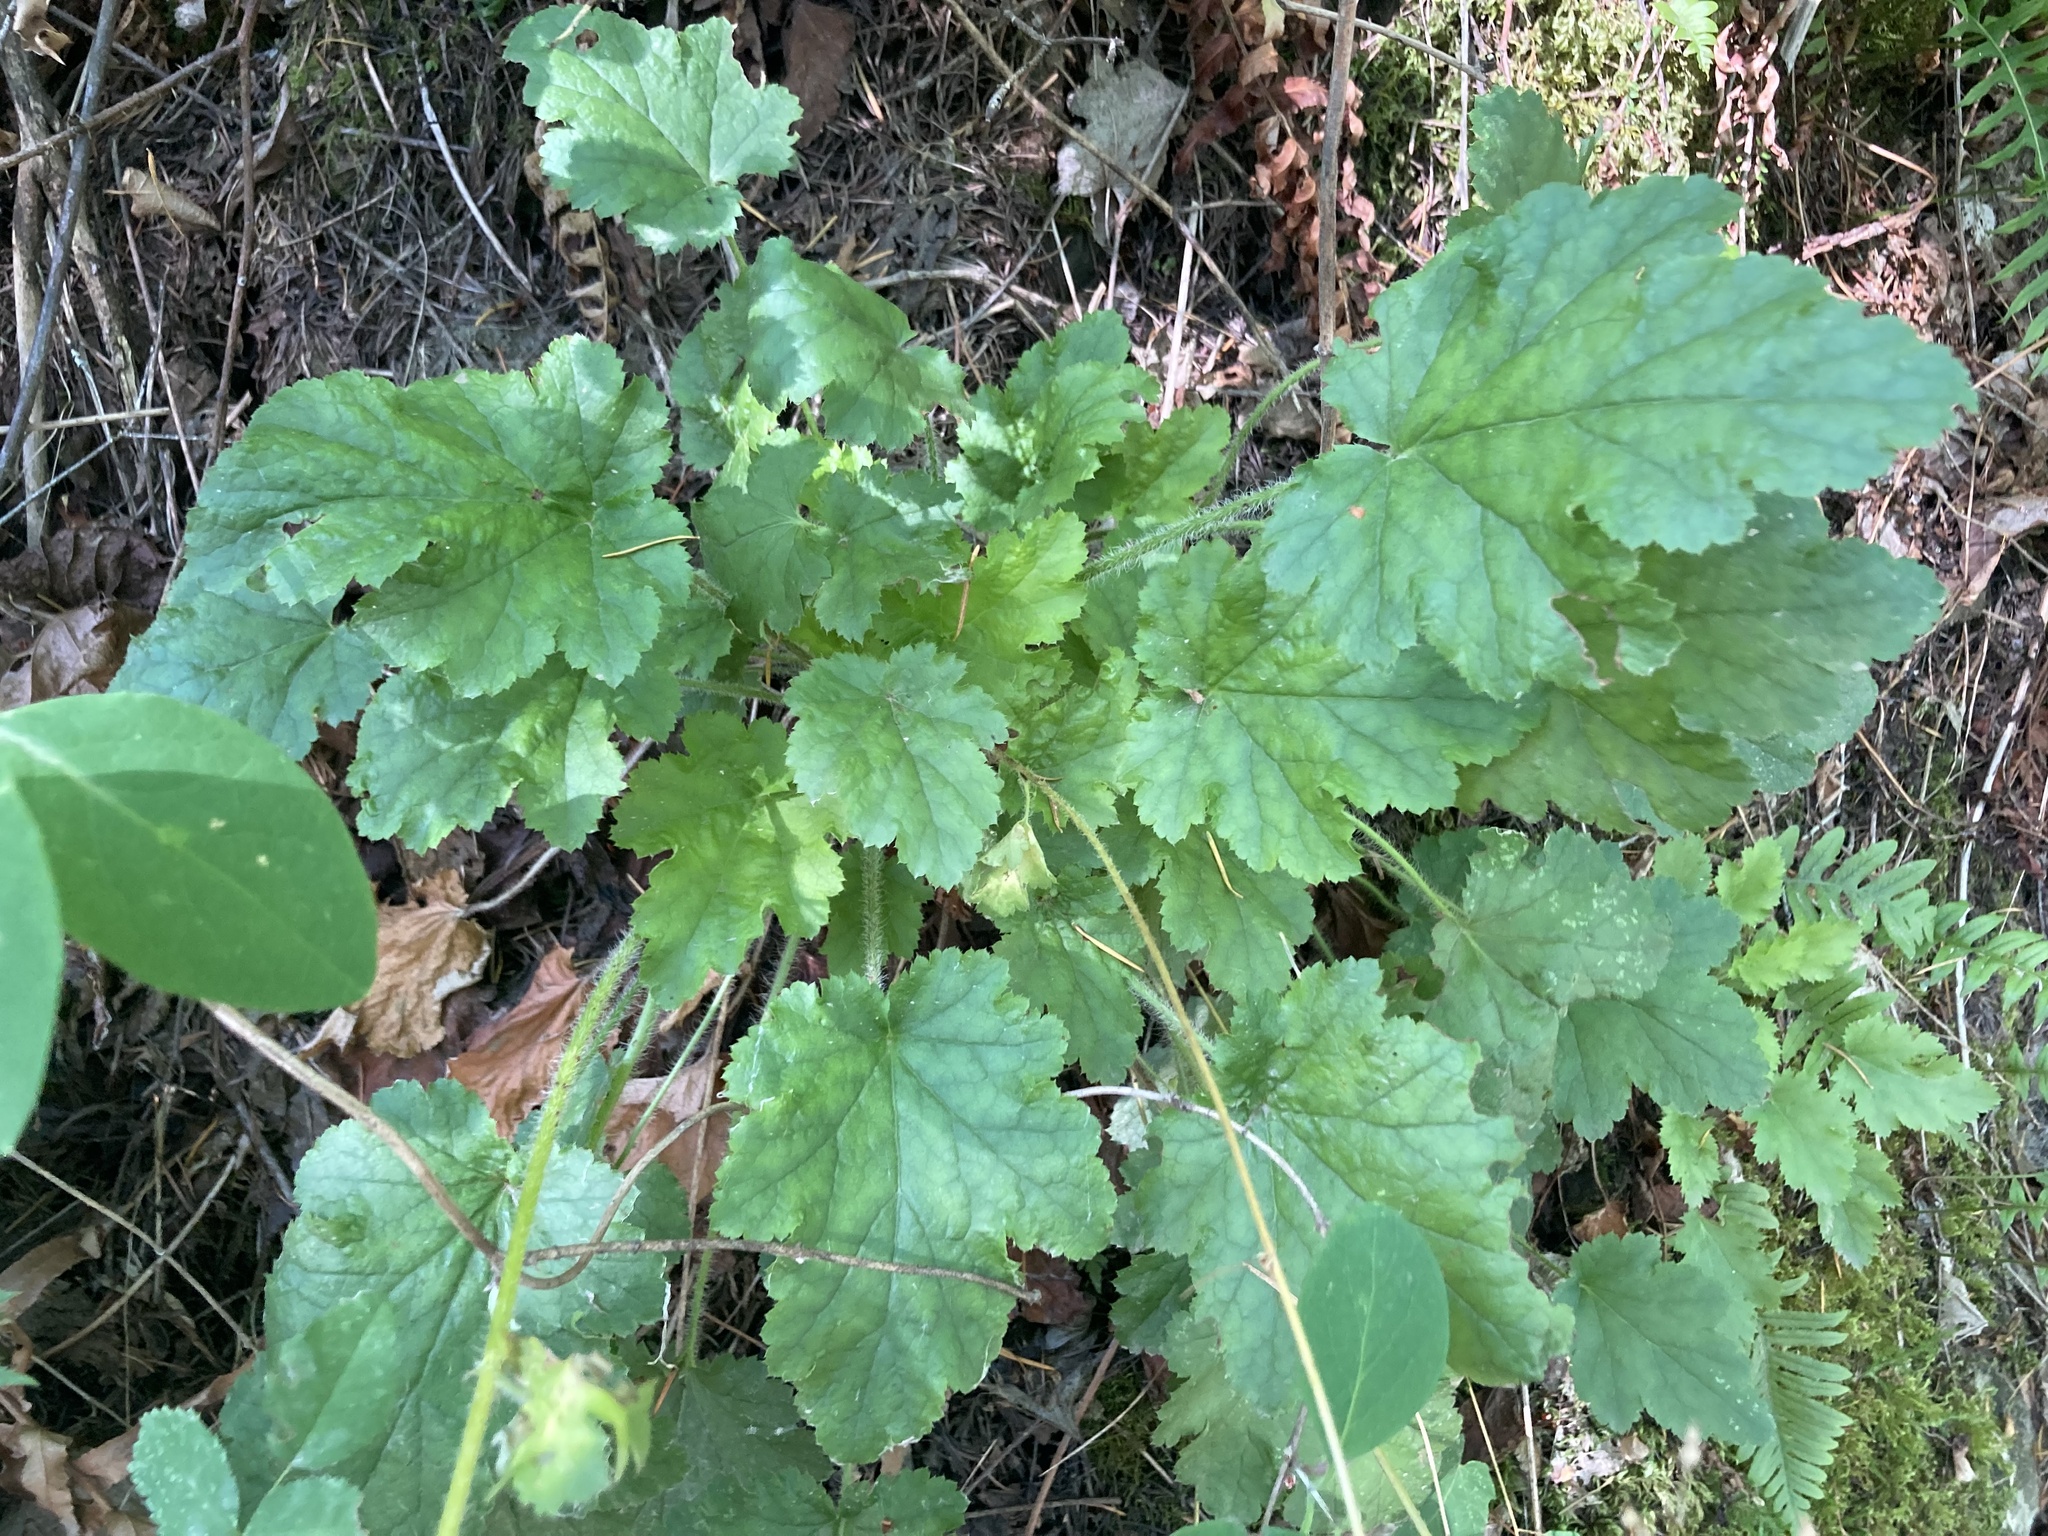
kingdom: Plantae
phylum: Tracheophyta
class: Magnoliopsida
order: Saxifragales
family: Saxifragaceae
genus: Heuchera
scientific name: Heuchera micrantha
